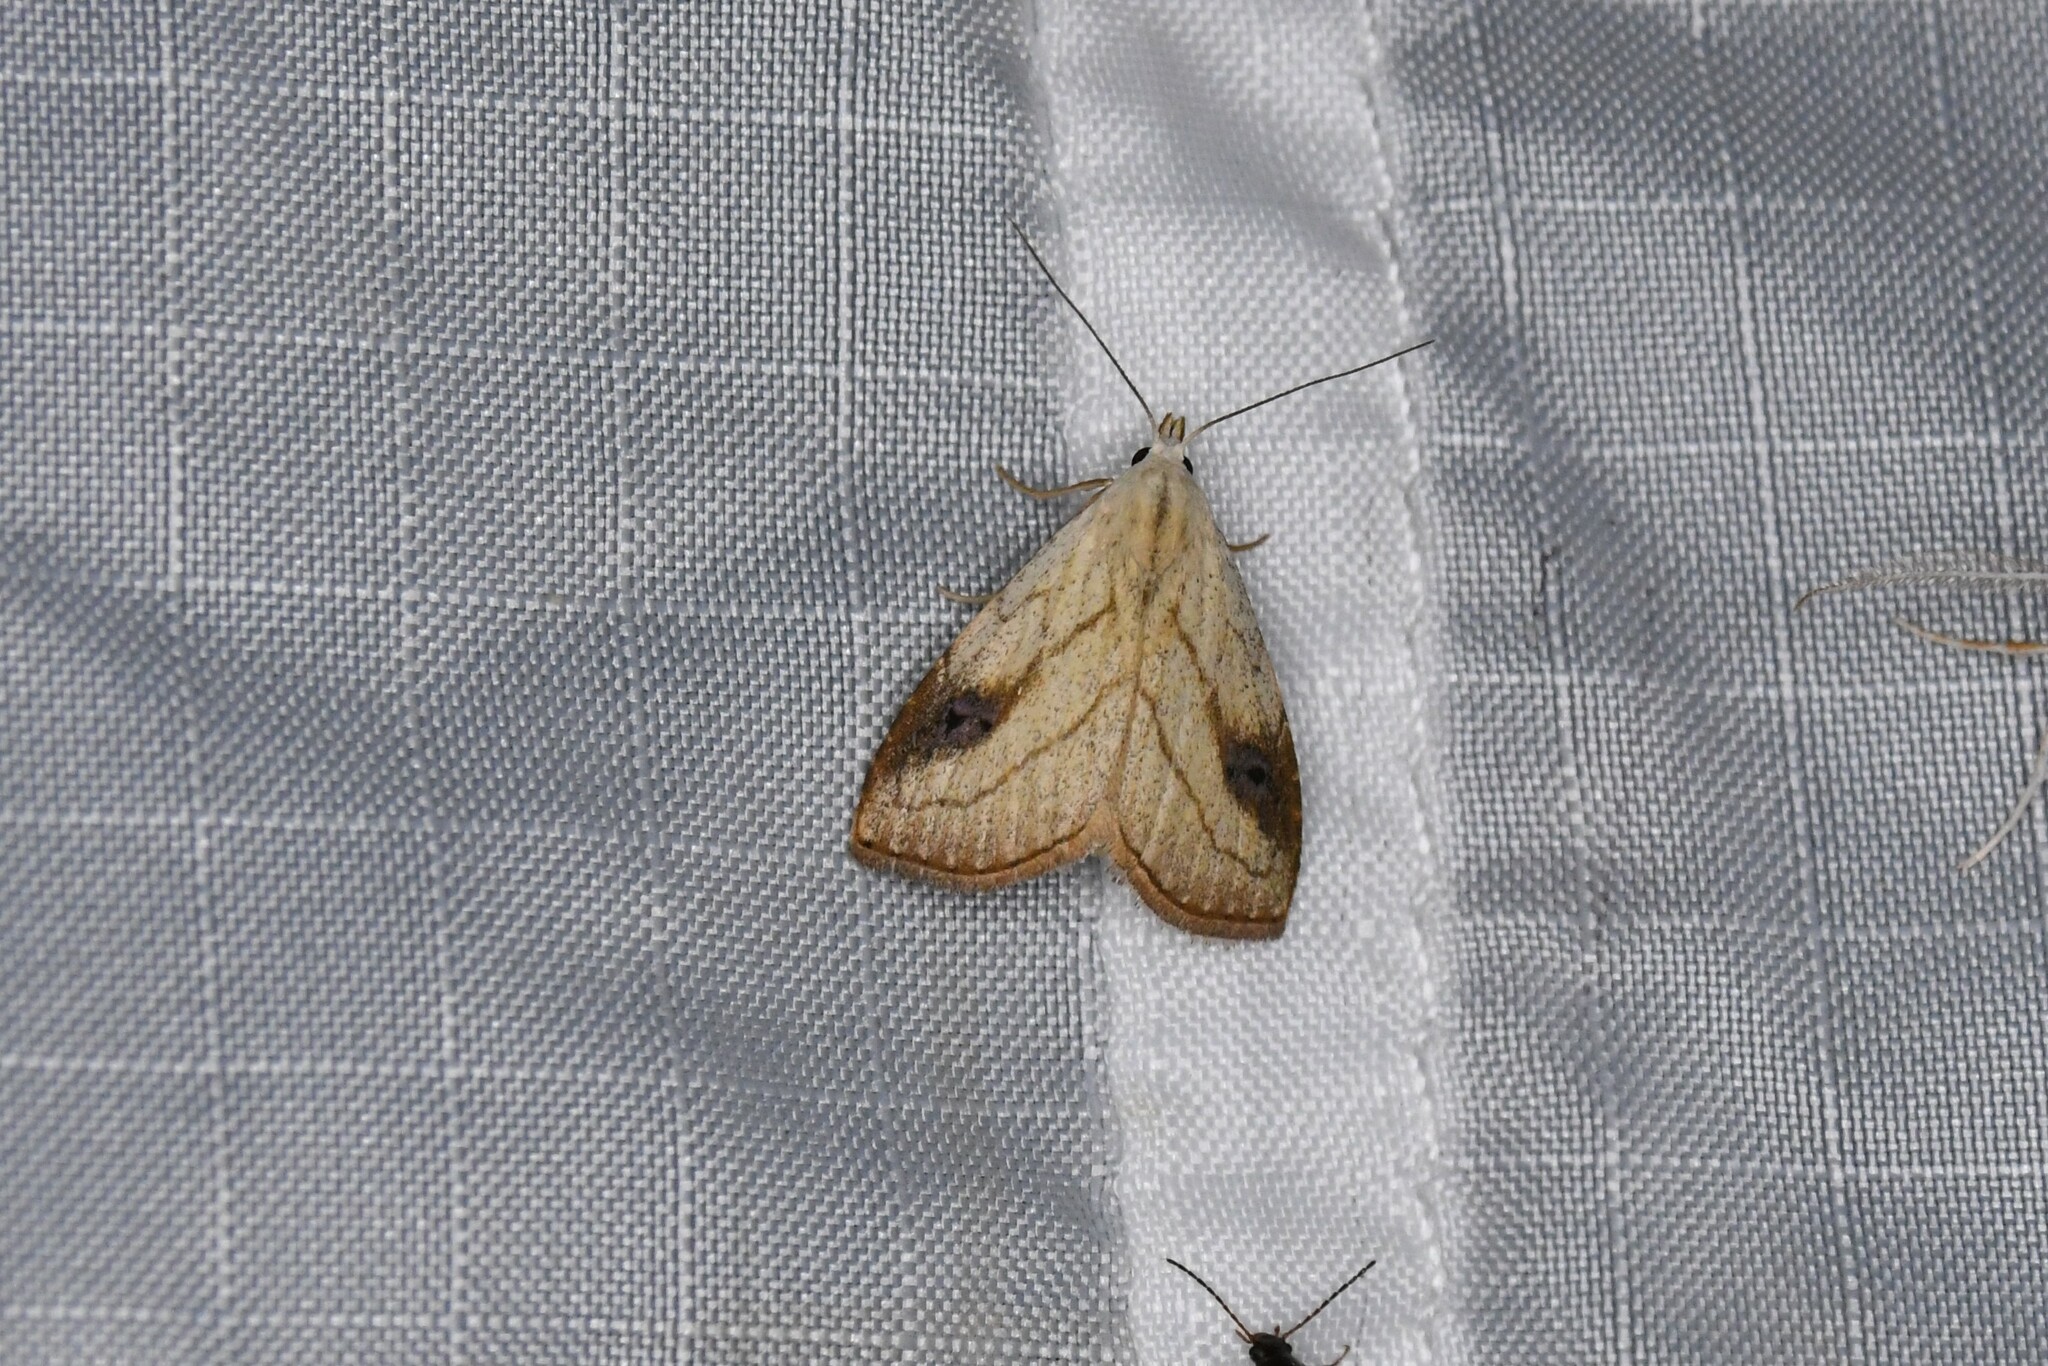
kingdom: Animalia
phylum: Arthropoda
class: Insecta
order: Lepidoptera
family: Erebidae
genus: Rivula
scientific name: Rivula propinqualis
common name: Spotted grass moth
